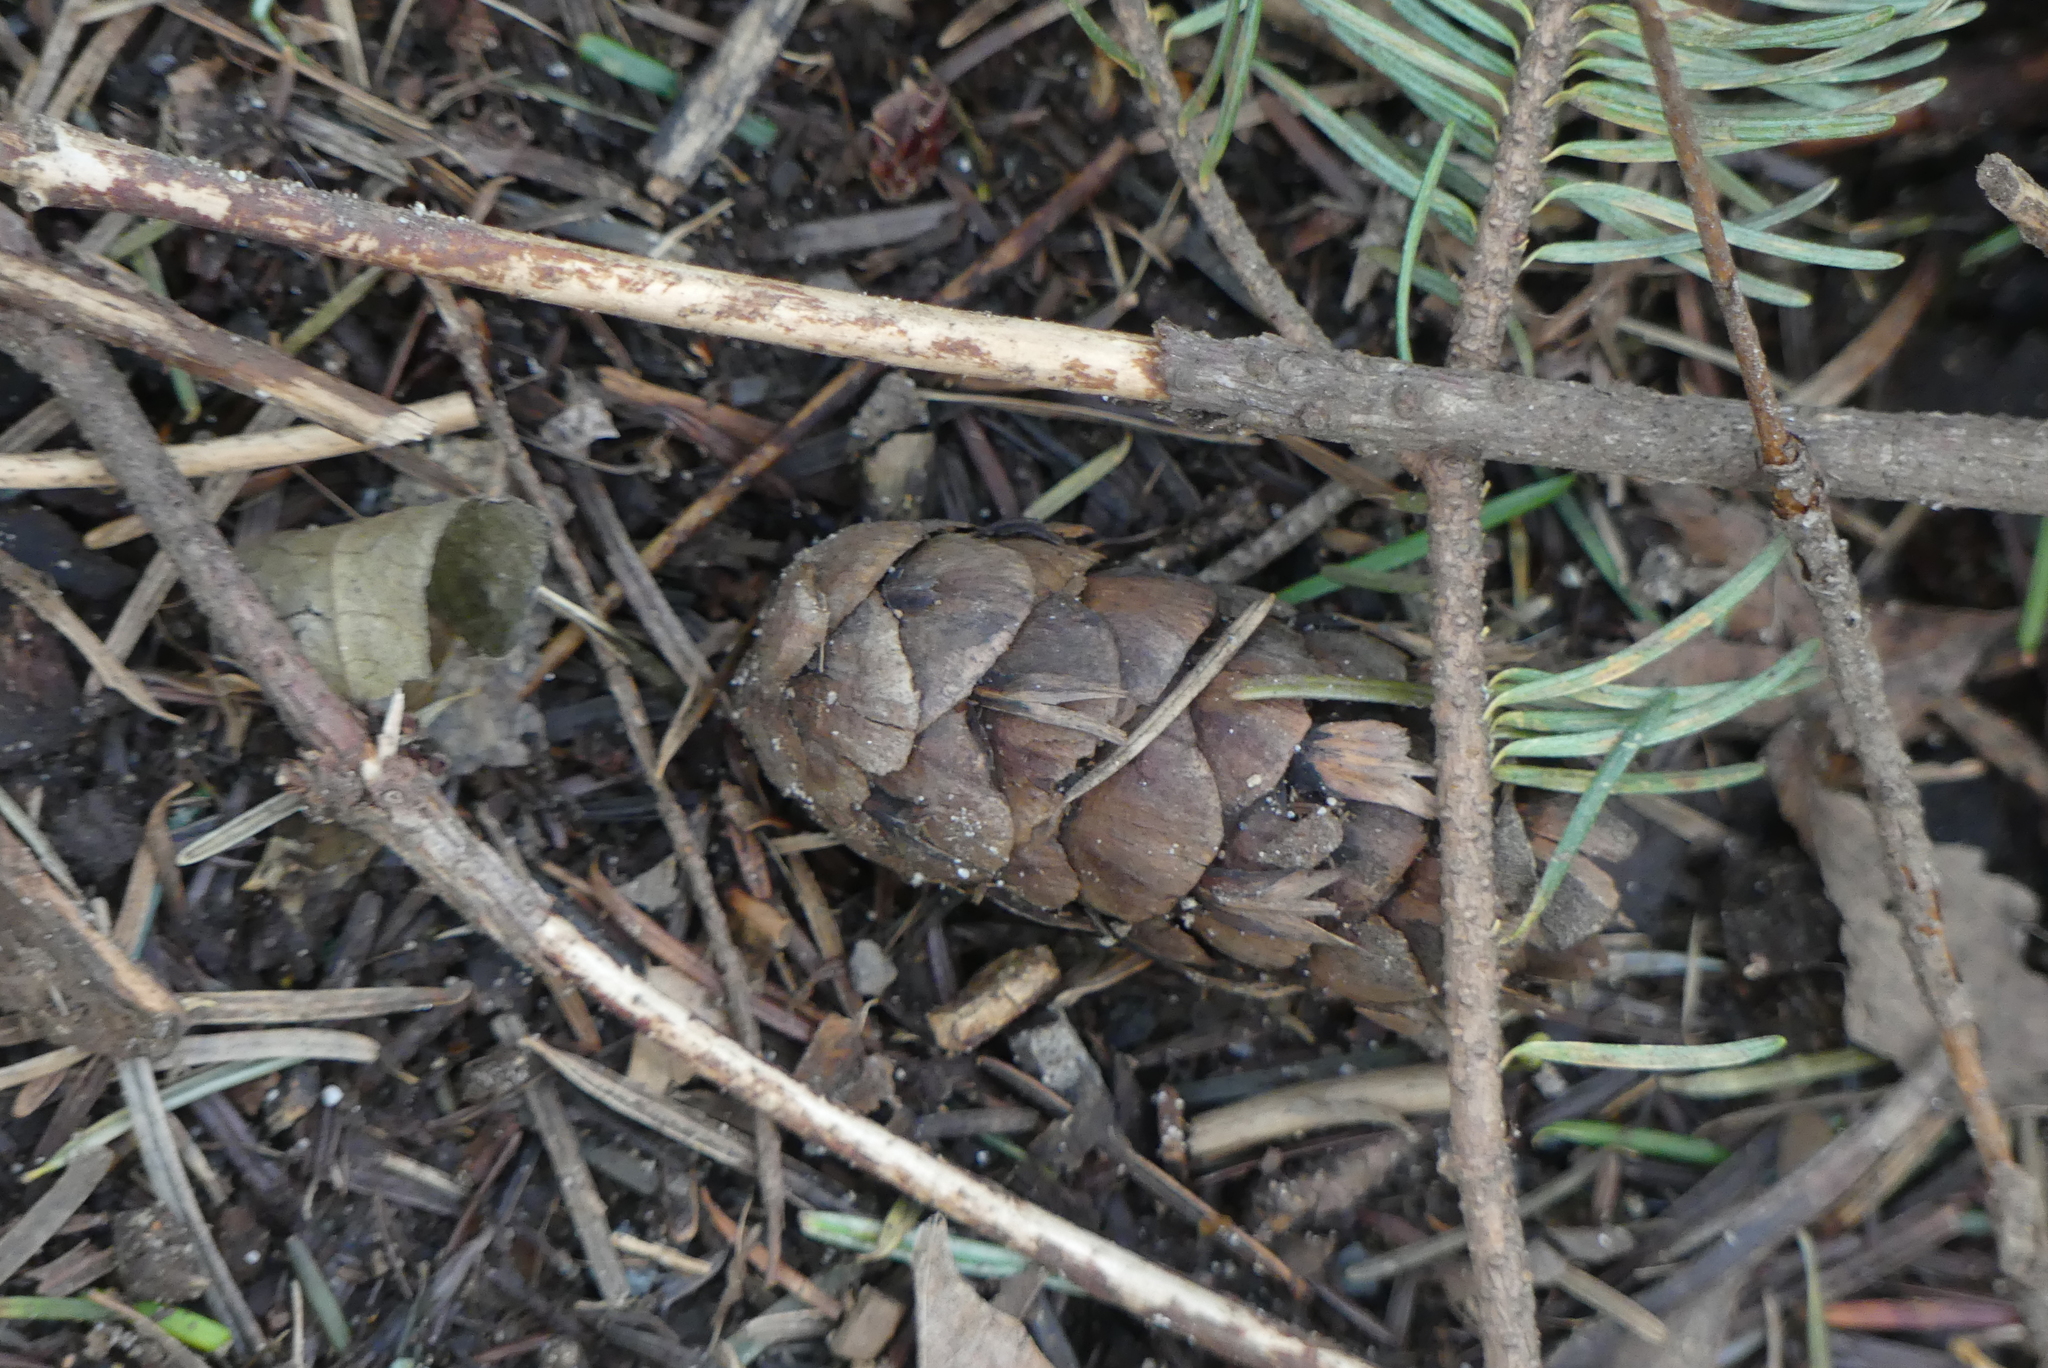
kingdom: Plantae
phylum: Tracheophyta
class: Pinopsida
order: Pinales
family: Pinaceae
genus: Pseudotsuga
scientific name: Pseudotsuga menziesii
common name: Douglas fir
